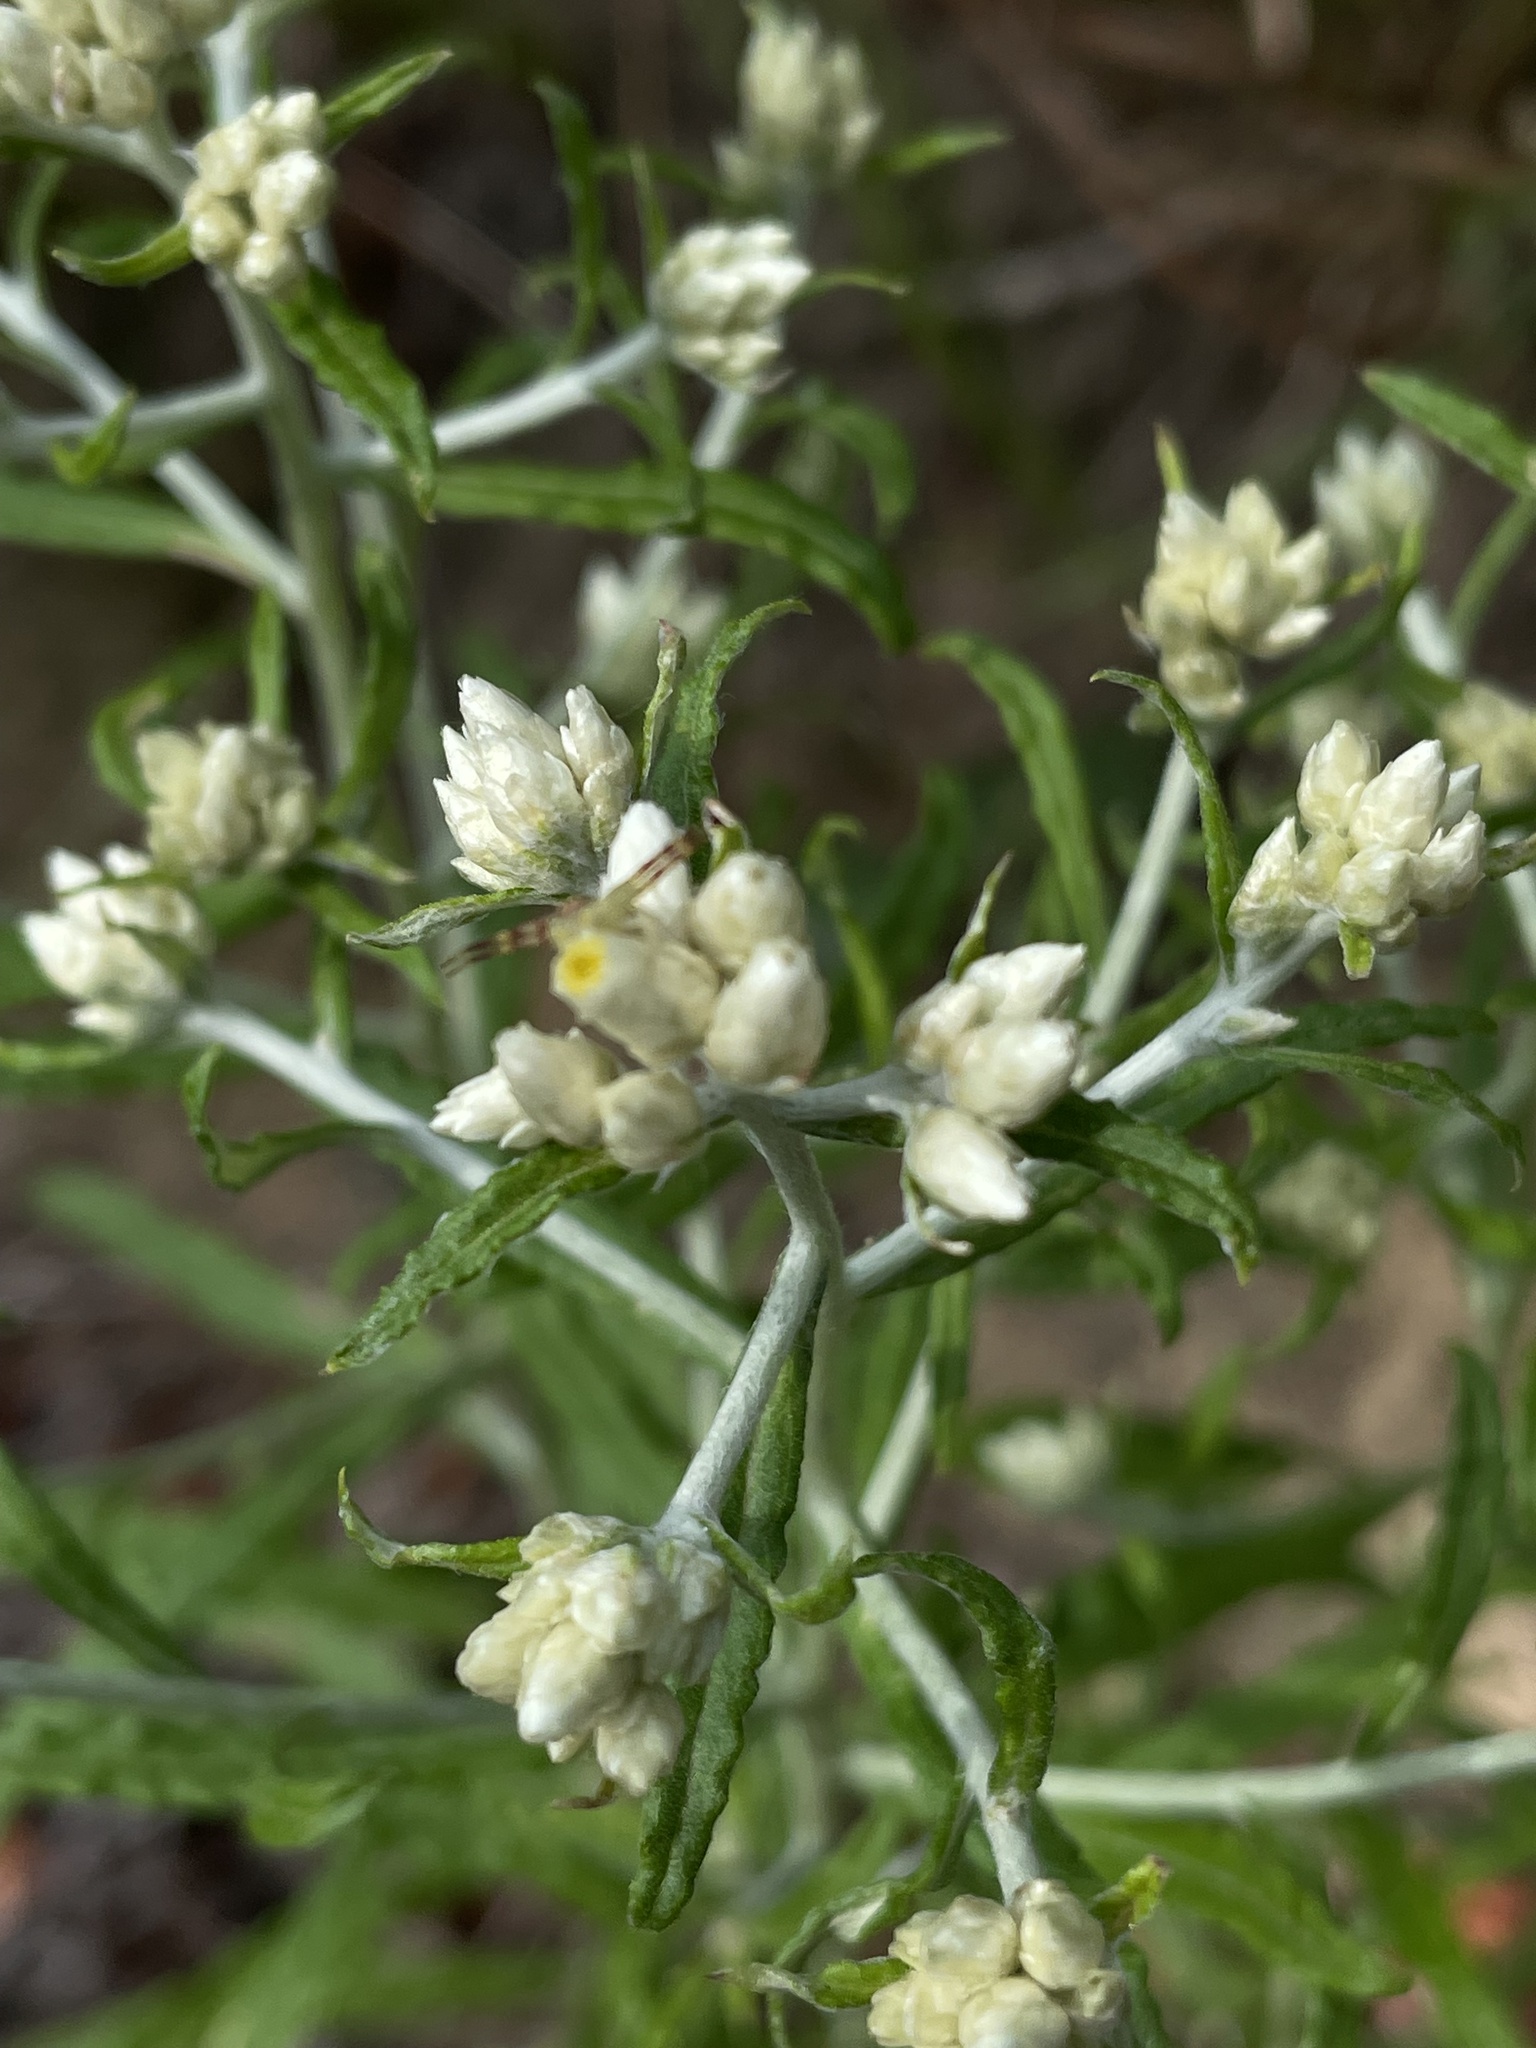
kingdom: Plantae
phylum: Tracheophyta
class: Magnoliopsida
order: Asterales
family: Asteraceae
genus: Pseudognaphalium
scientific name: Pseudognaphalium obtusifolium
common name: Eastern rabbit-tobacco
